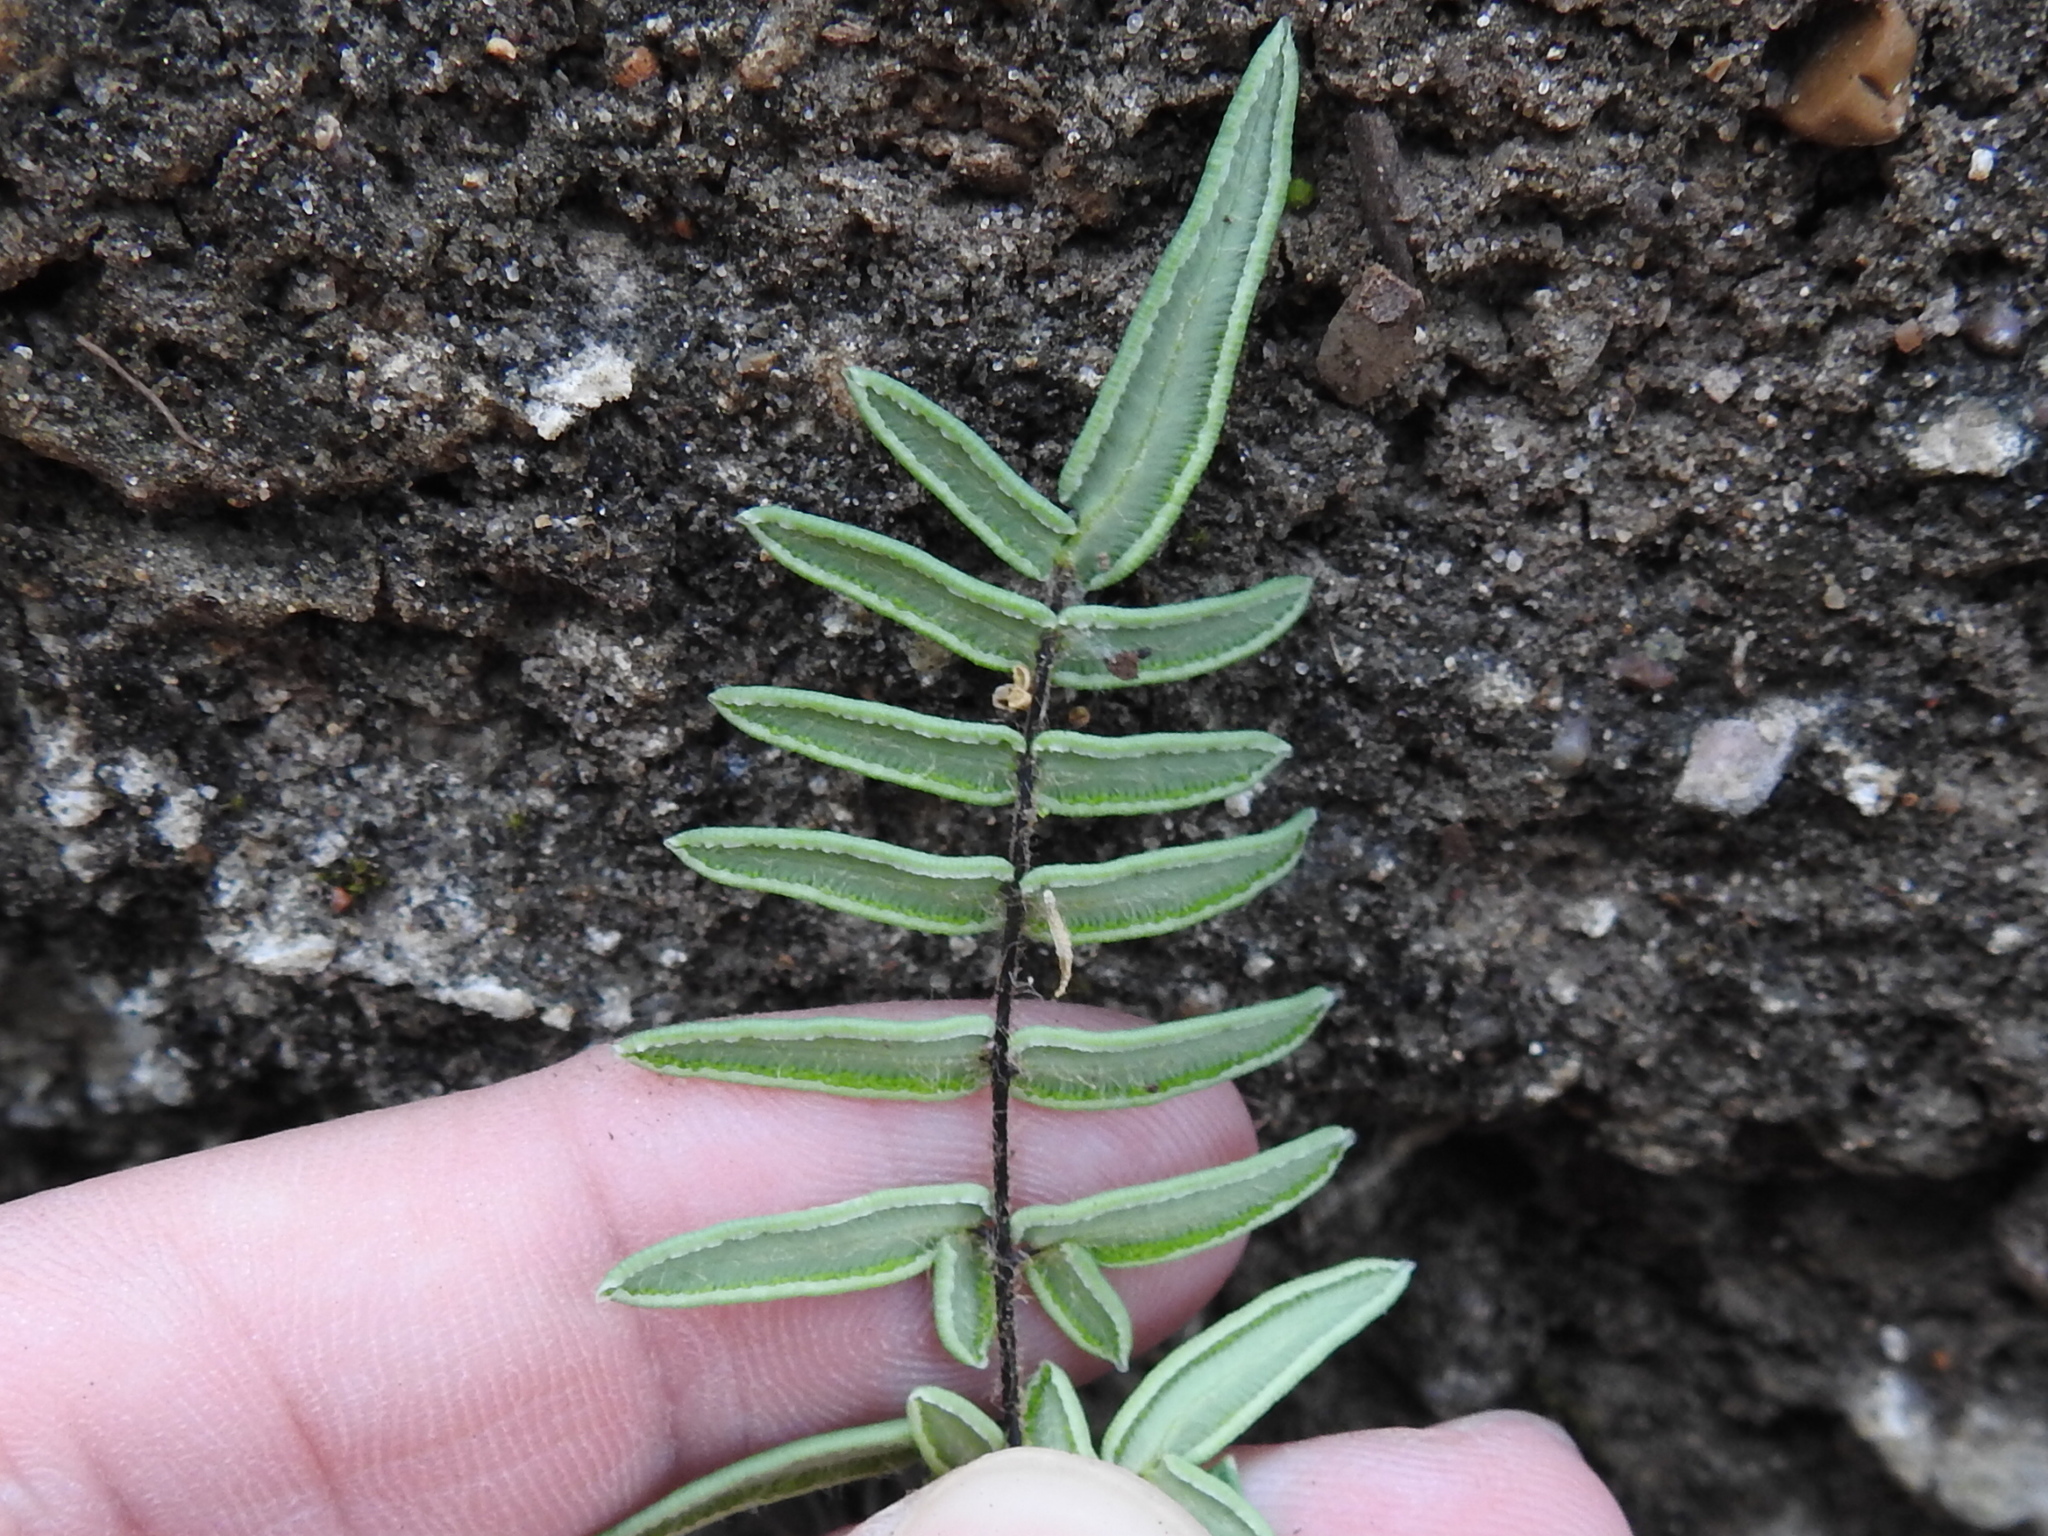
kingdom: Plantae
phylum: Tracheophyta
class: Polypodiopsida
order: Polypodiales
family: Pteridaceae
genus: Pellaea
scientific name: Pellaea atropurpurea
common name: Hairy cliffbrake
